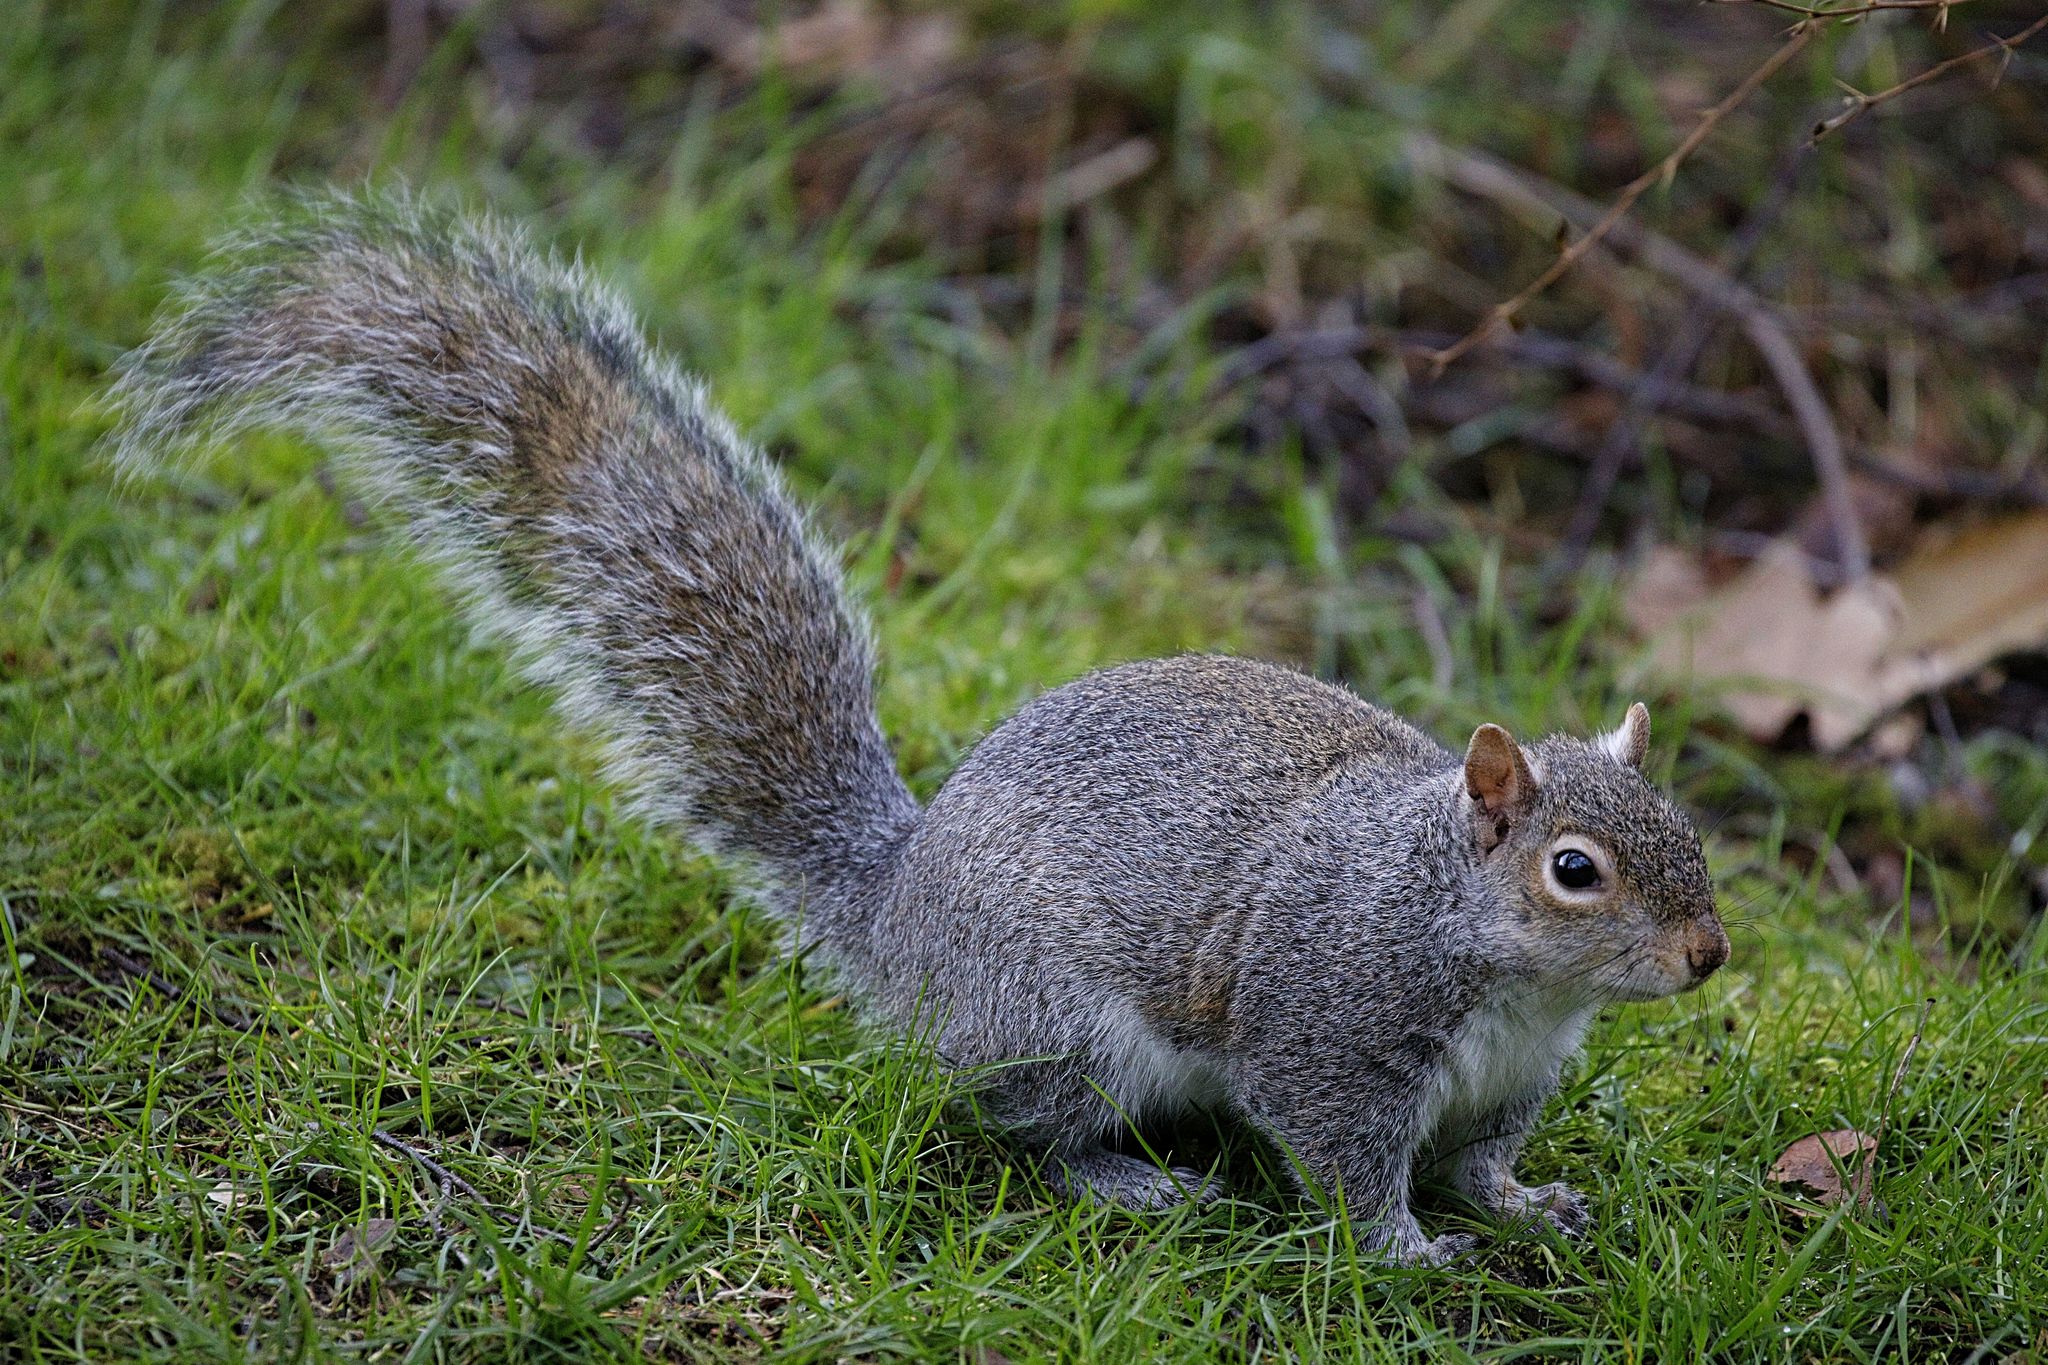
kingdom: Animalia
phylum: Chordata
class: Mammalia
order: Rodentia
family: Sciuridae
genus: Sciurus
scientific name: Sciurus carolinensis
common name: Eastern gray squirrel
